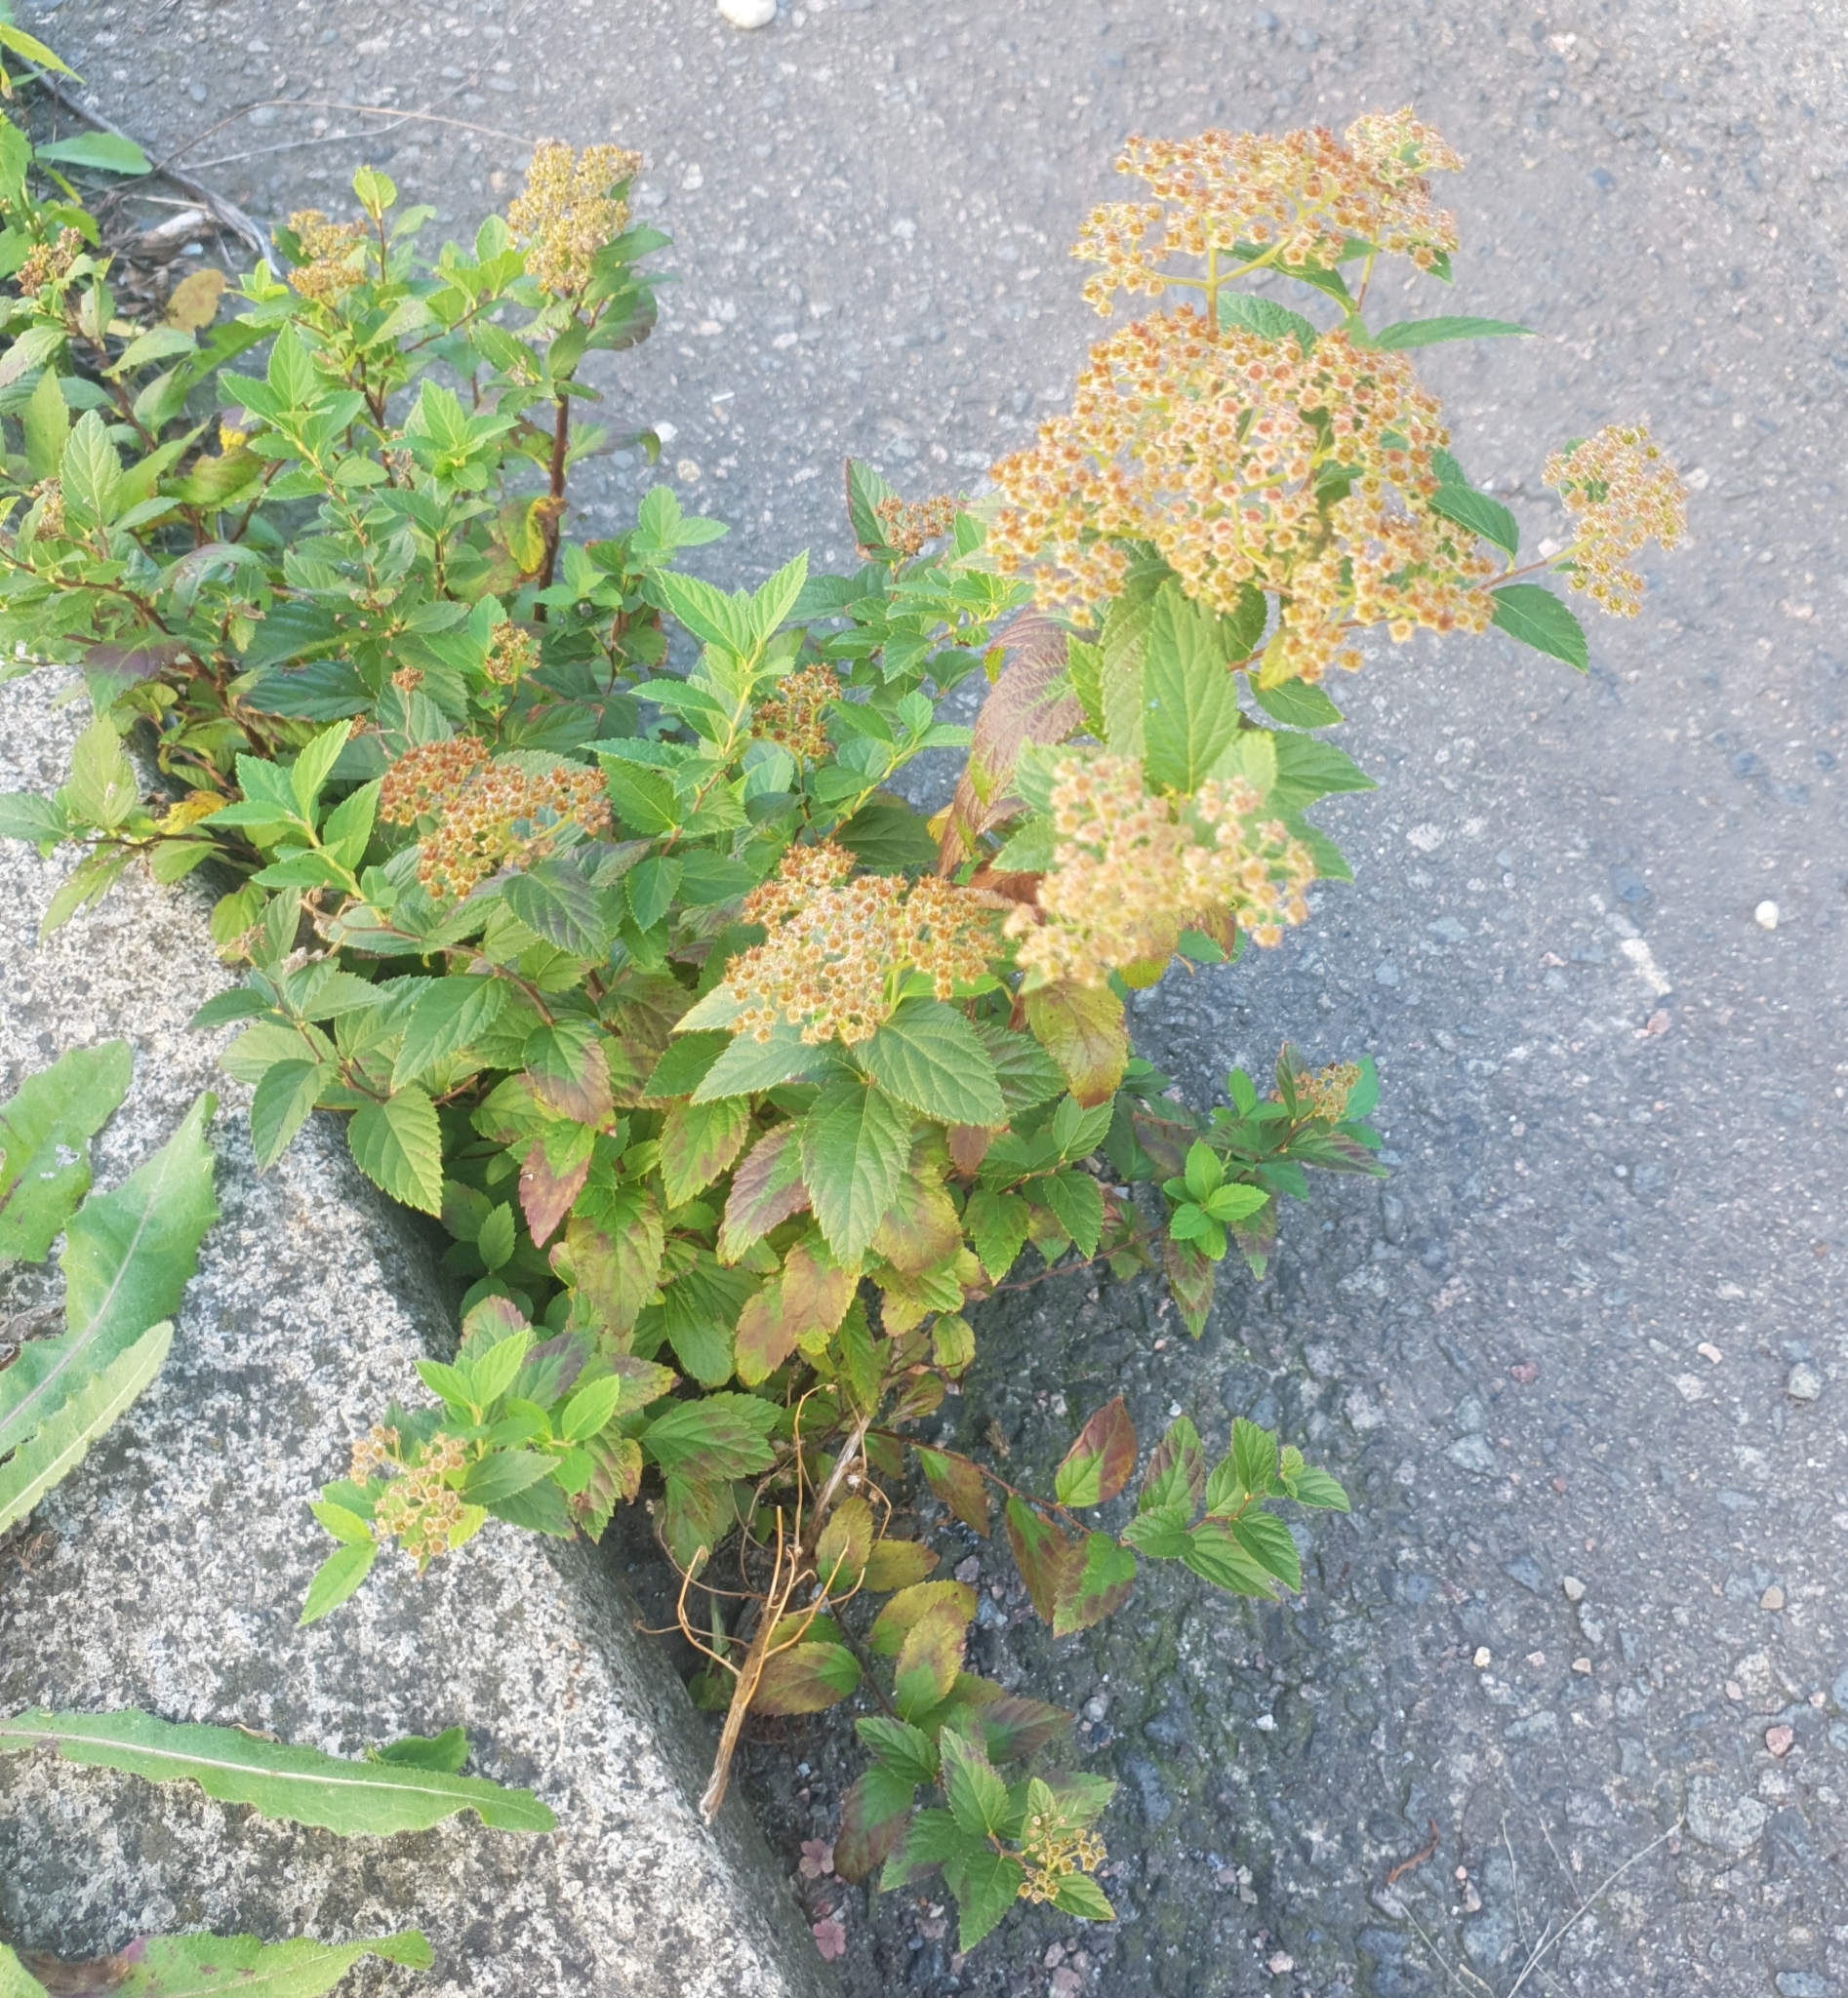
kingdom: Plantae
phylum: Tracheophyta
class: Magnoliopsida
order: Rosales
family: Rosaceae
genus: Spiraea
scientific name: Spiraea japonica
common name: Japanese spiraea
